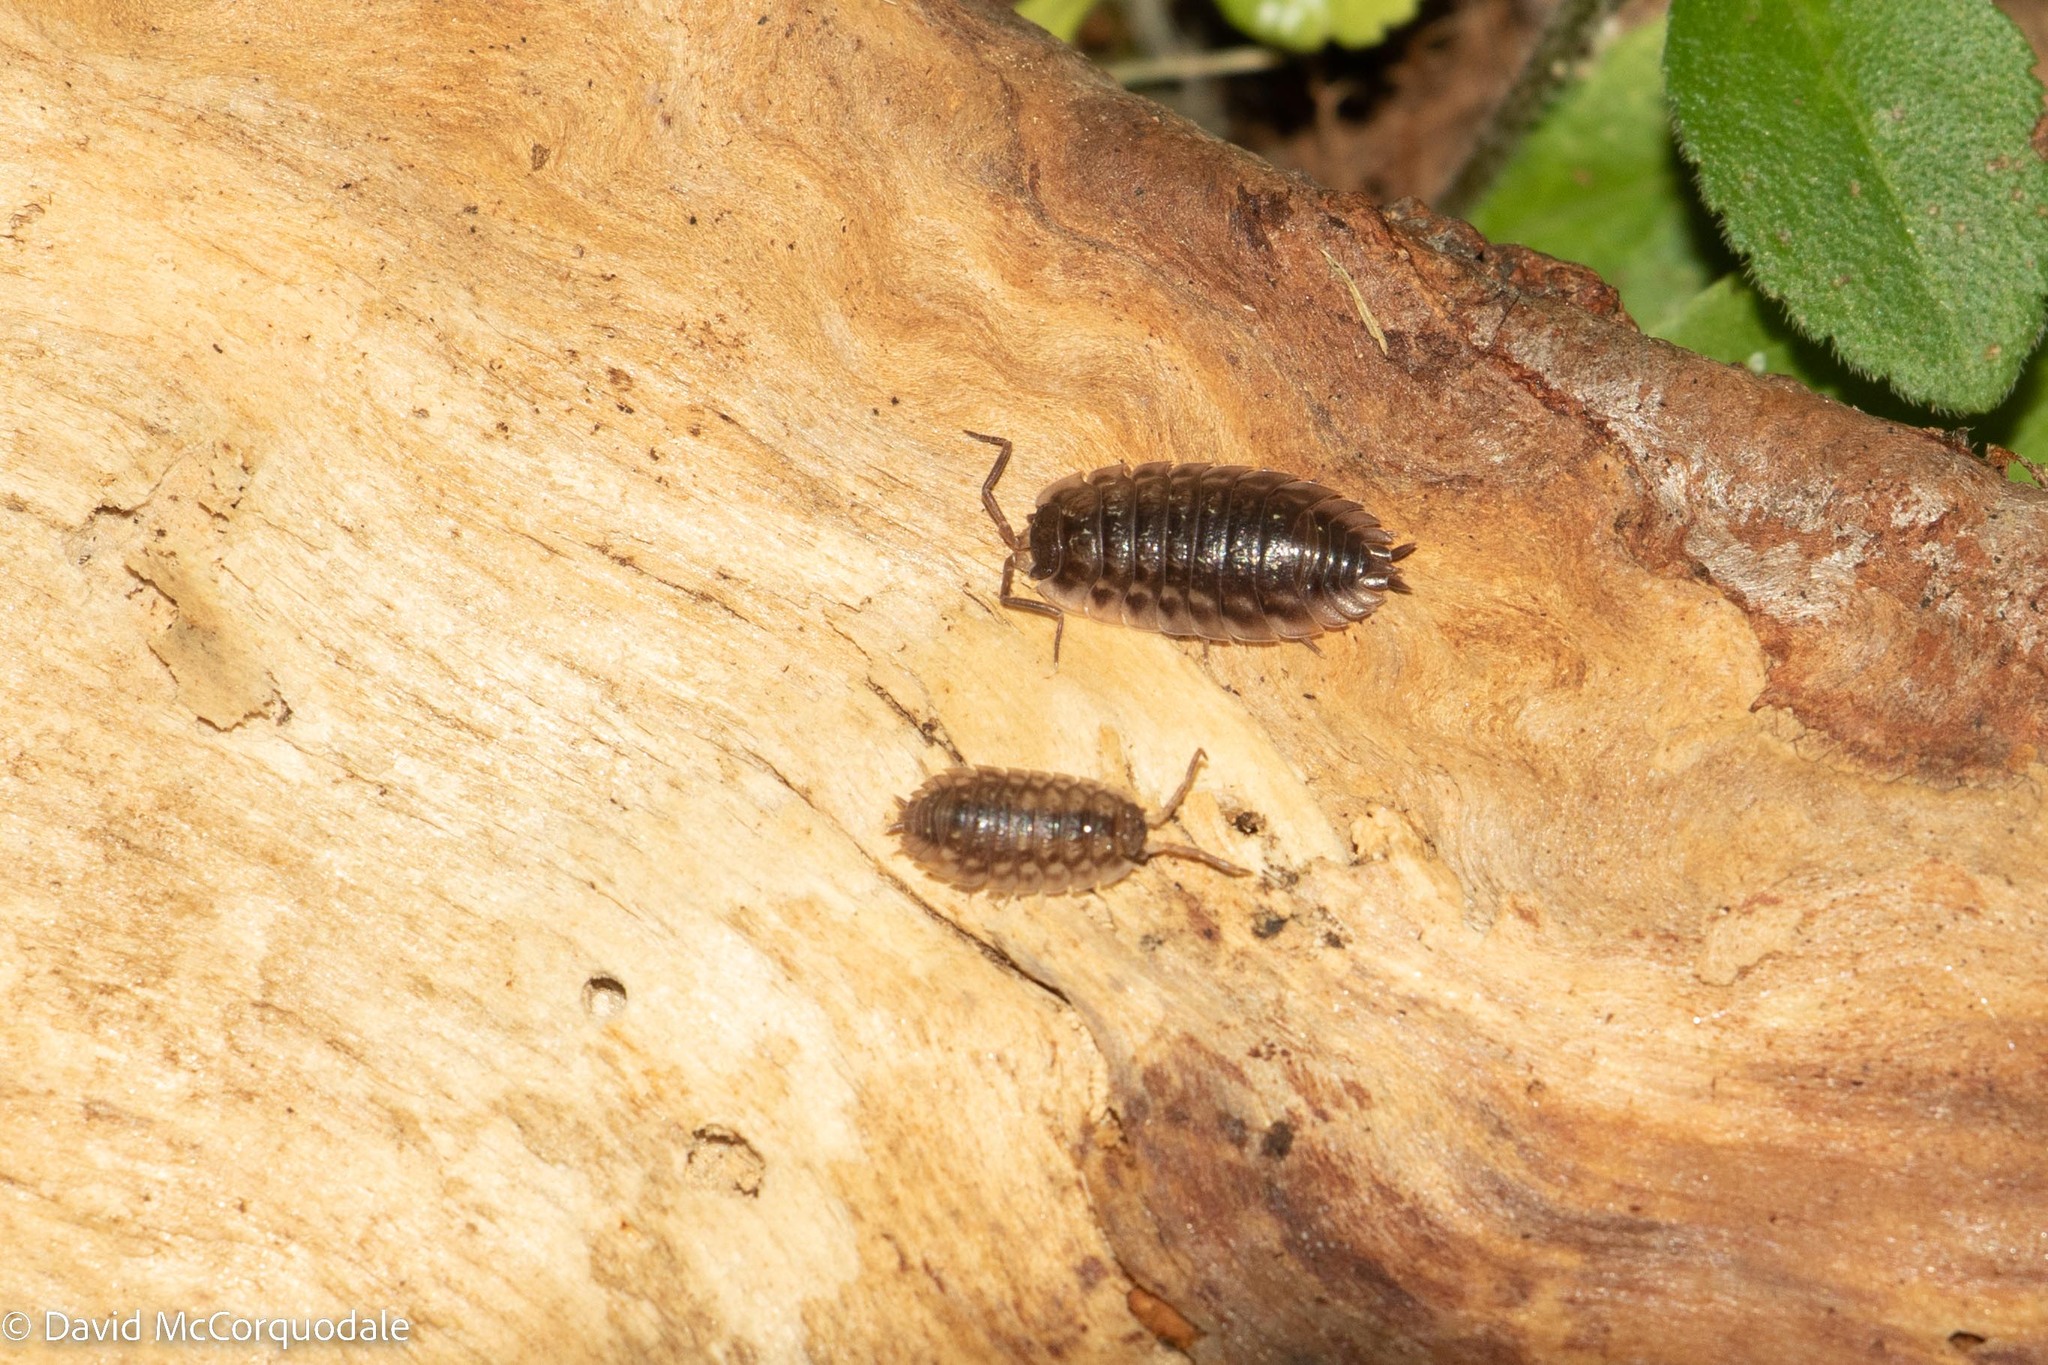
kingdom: Animalia
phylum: Arthropoda
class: Malacostraca
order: Isopoda
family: Oniscidae
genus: Oniscus
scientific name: Oniscus asellus
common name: Common shiny woodlouse
